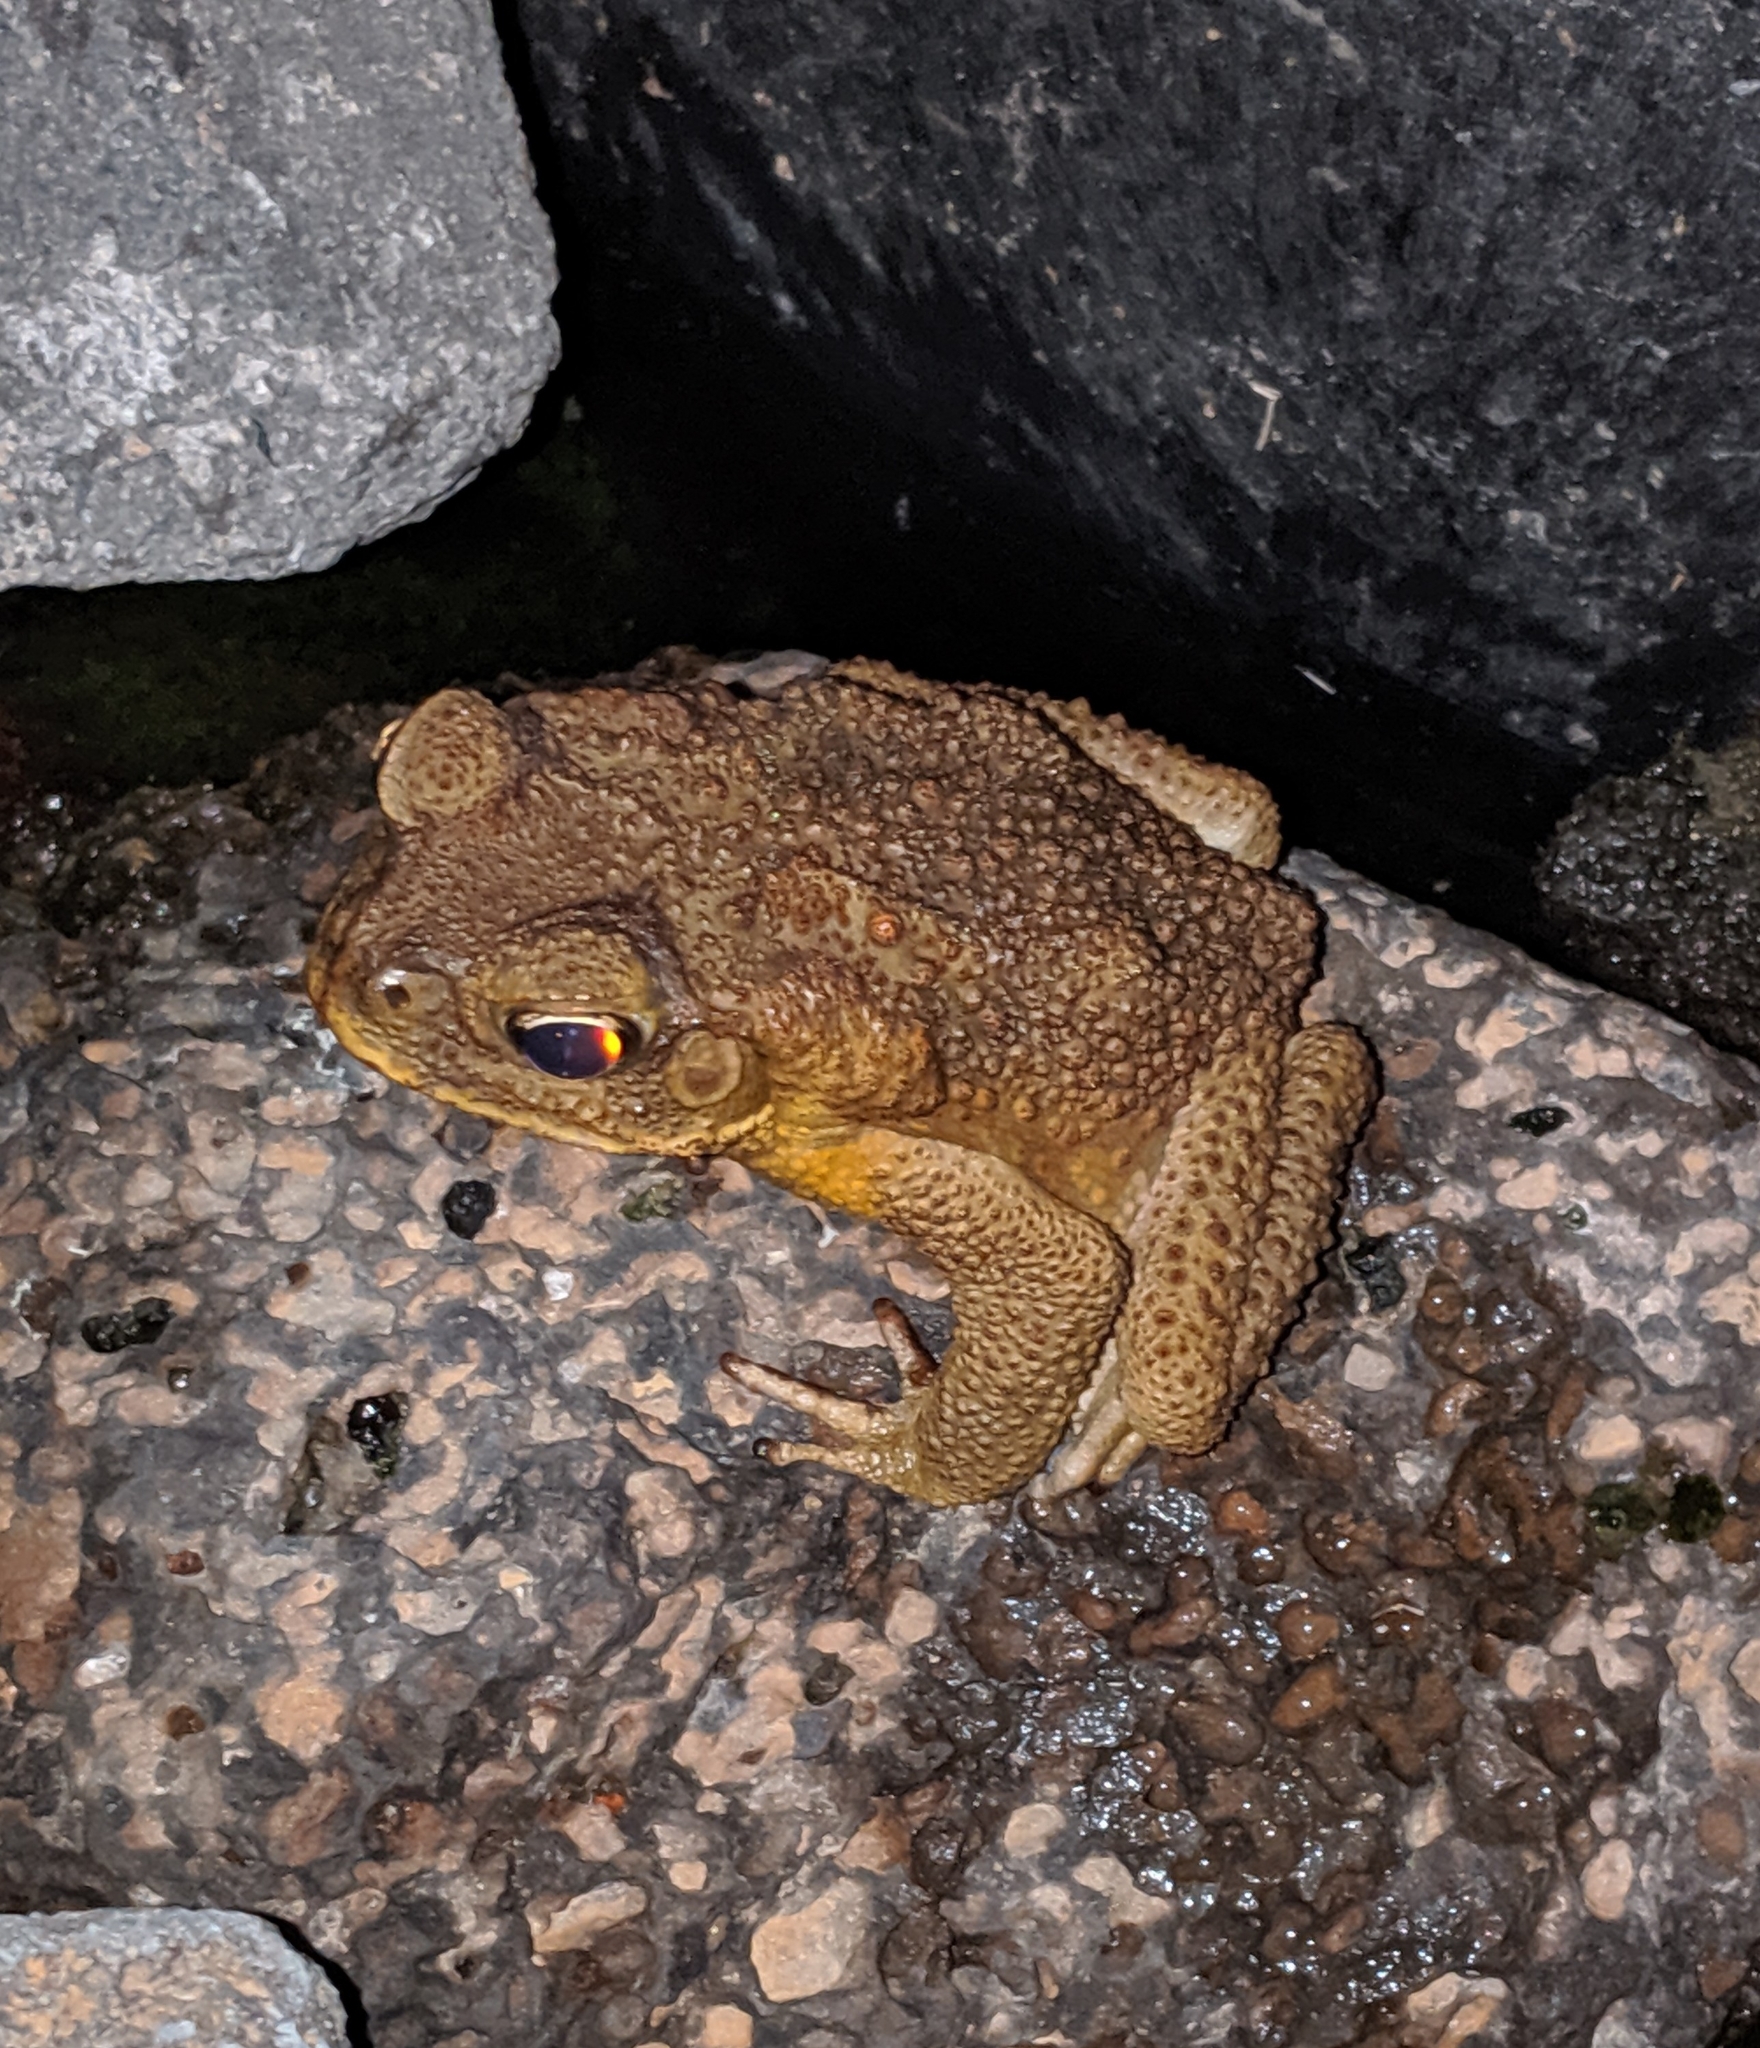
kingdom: Animalia
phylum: Chordata
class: Amphibia
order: Anura
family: Bufonidae
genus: Rhinella
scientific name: Rhinella marina
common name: Cane toad
